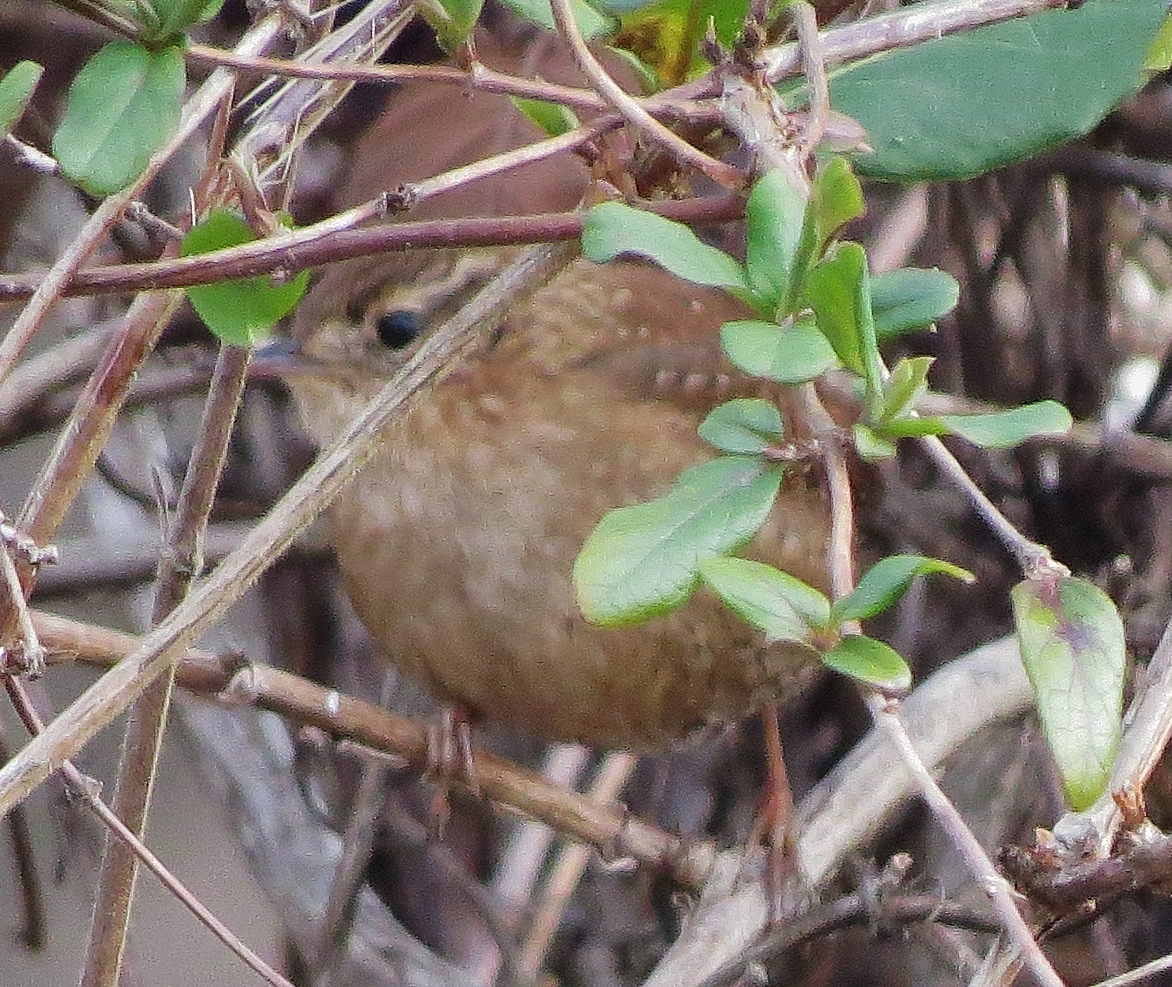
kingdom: Animalia
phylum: Chordata
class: Aves
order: Passeriformes
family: Troglodytidae
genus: Troglodytes
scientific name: Troglodytes hiemalis
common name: Winter wren
